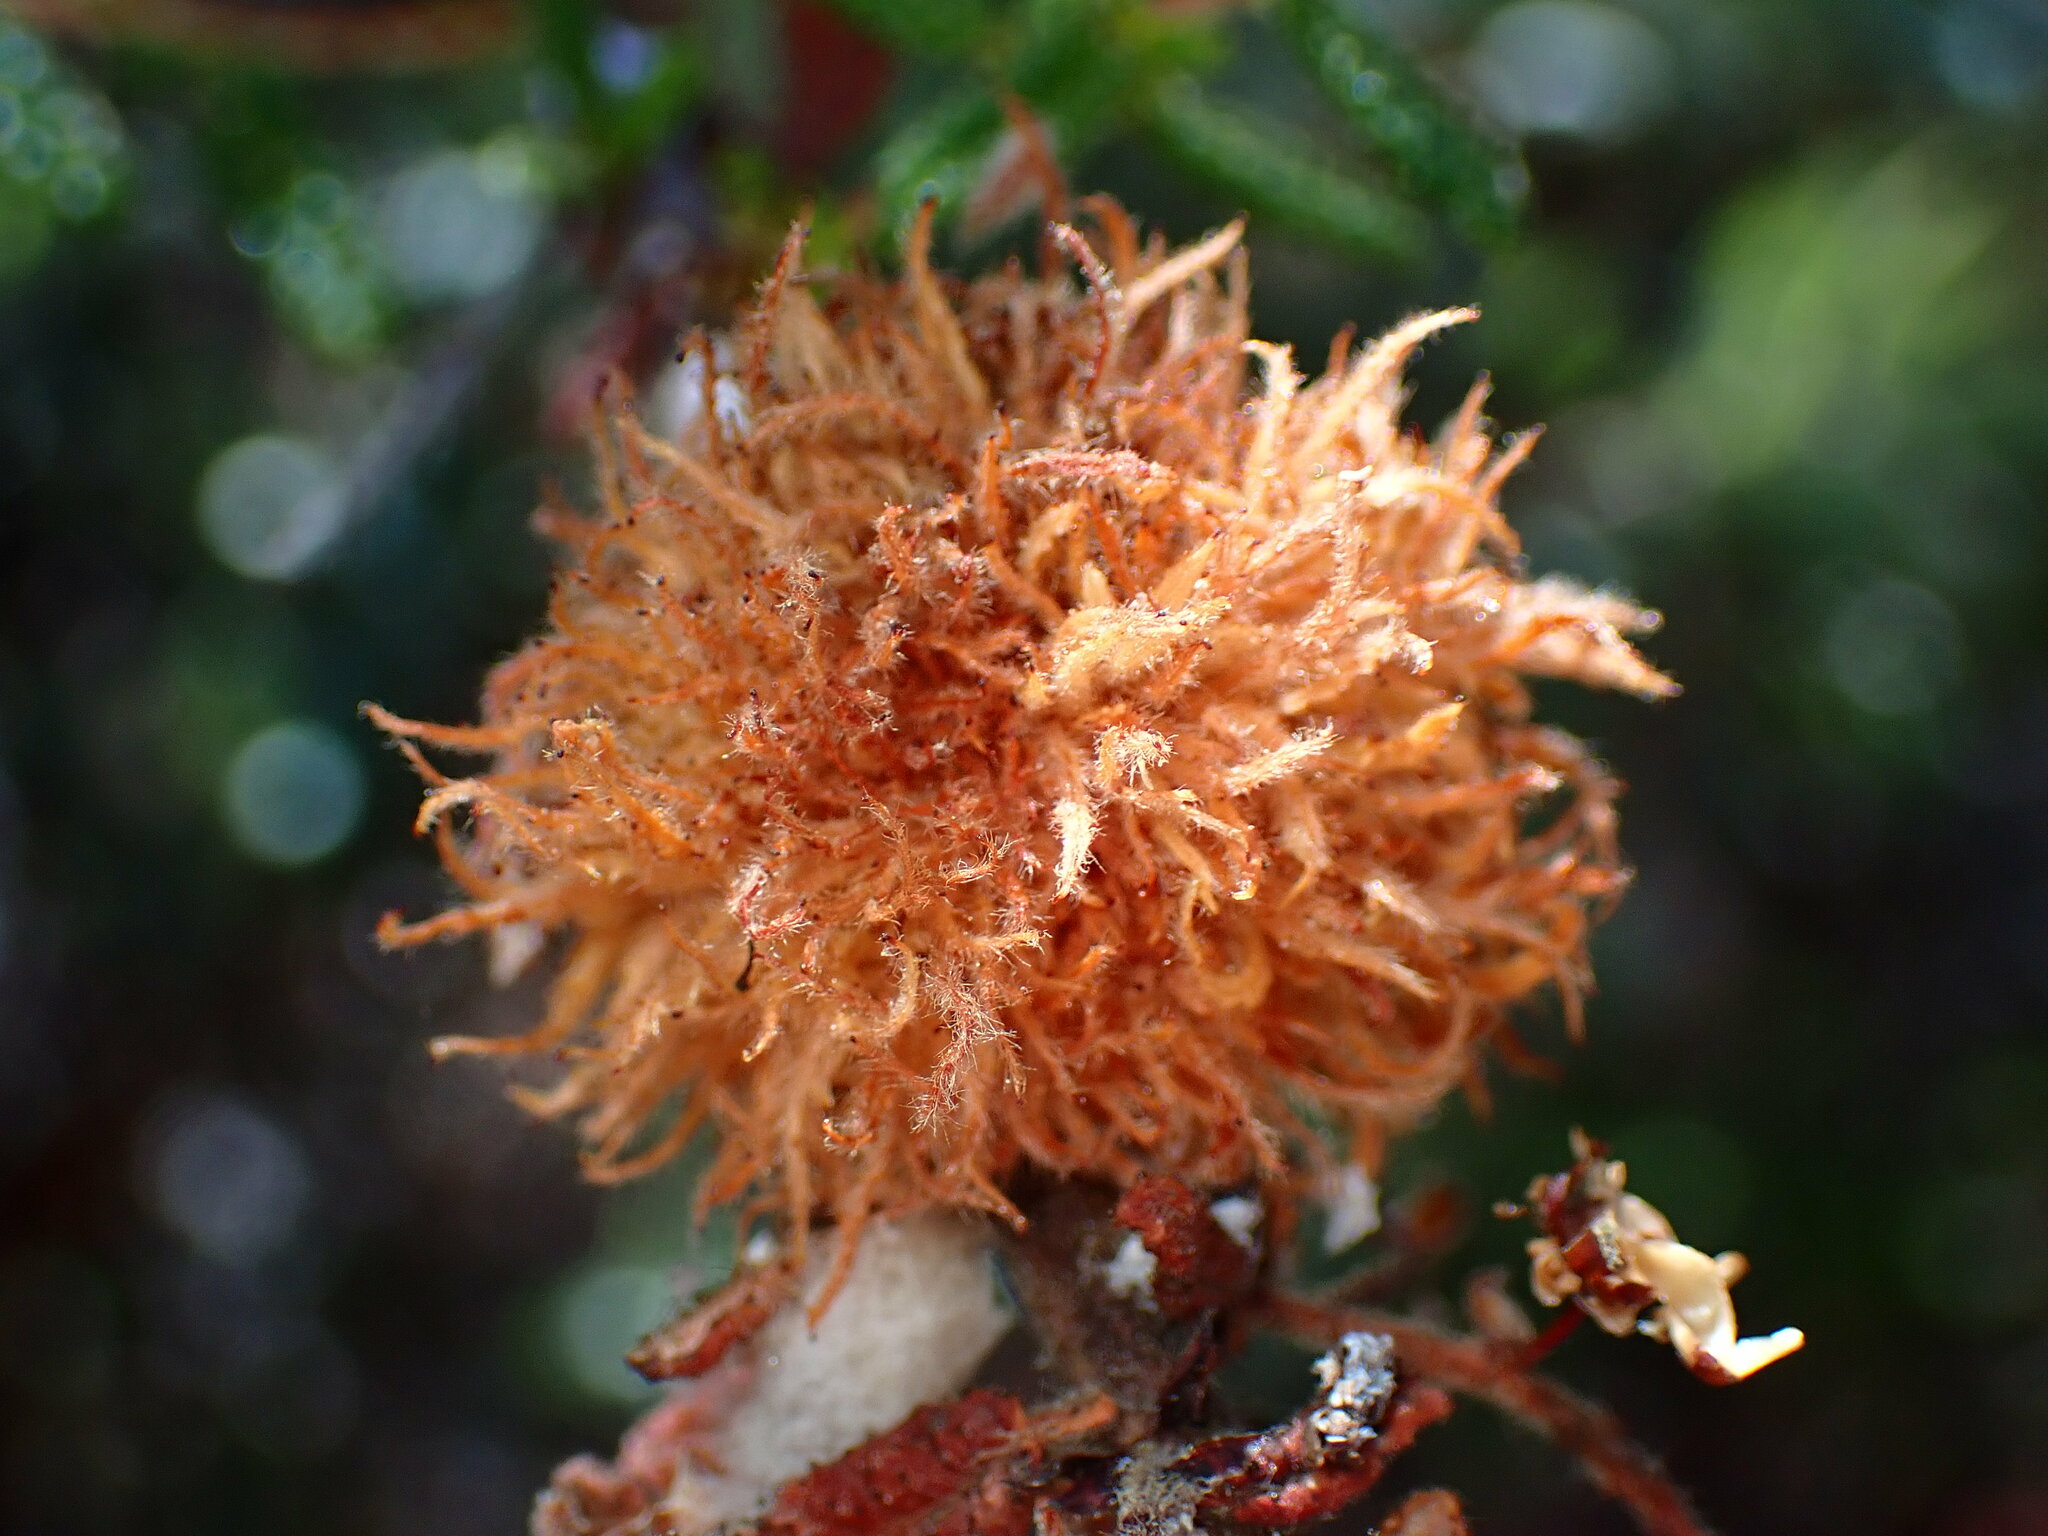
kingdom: Animalia
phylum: Arthropoda
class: Insecta
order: Diptera
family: Cecidomyiidae
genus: Asphondylia
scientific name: Asphondylia ceanothi
